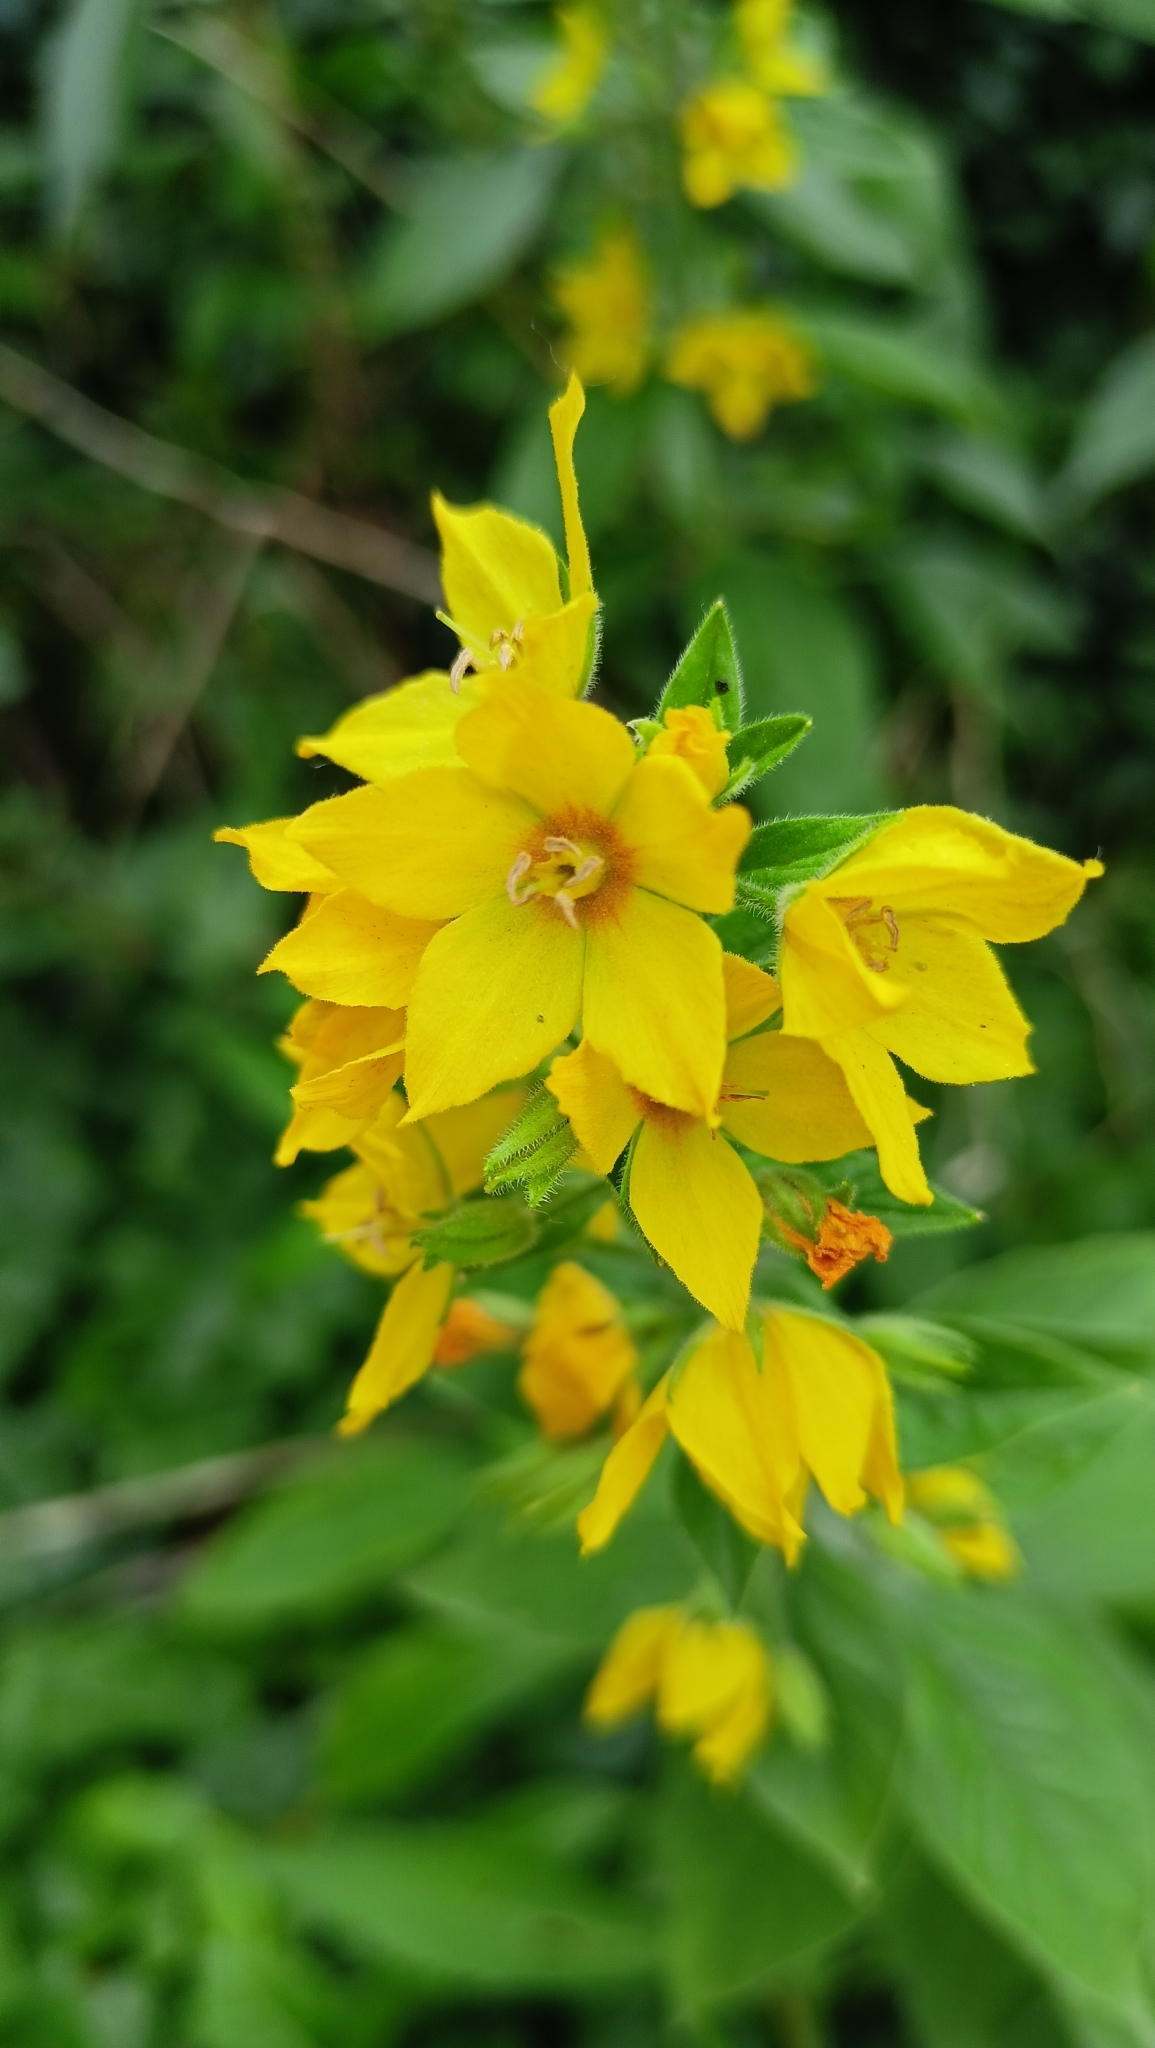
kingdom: Plantae
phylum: Tracheophyta
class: Magnoliopsida
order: Ericales
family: Primulaceae
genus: Lysimachia
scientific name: Lysimachia punctata
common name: Dotted loosestrife
